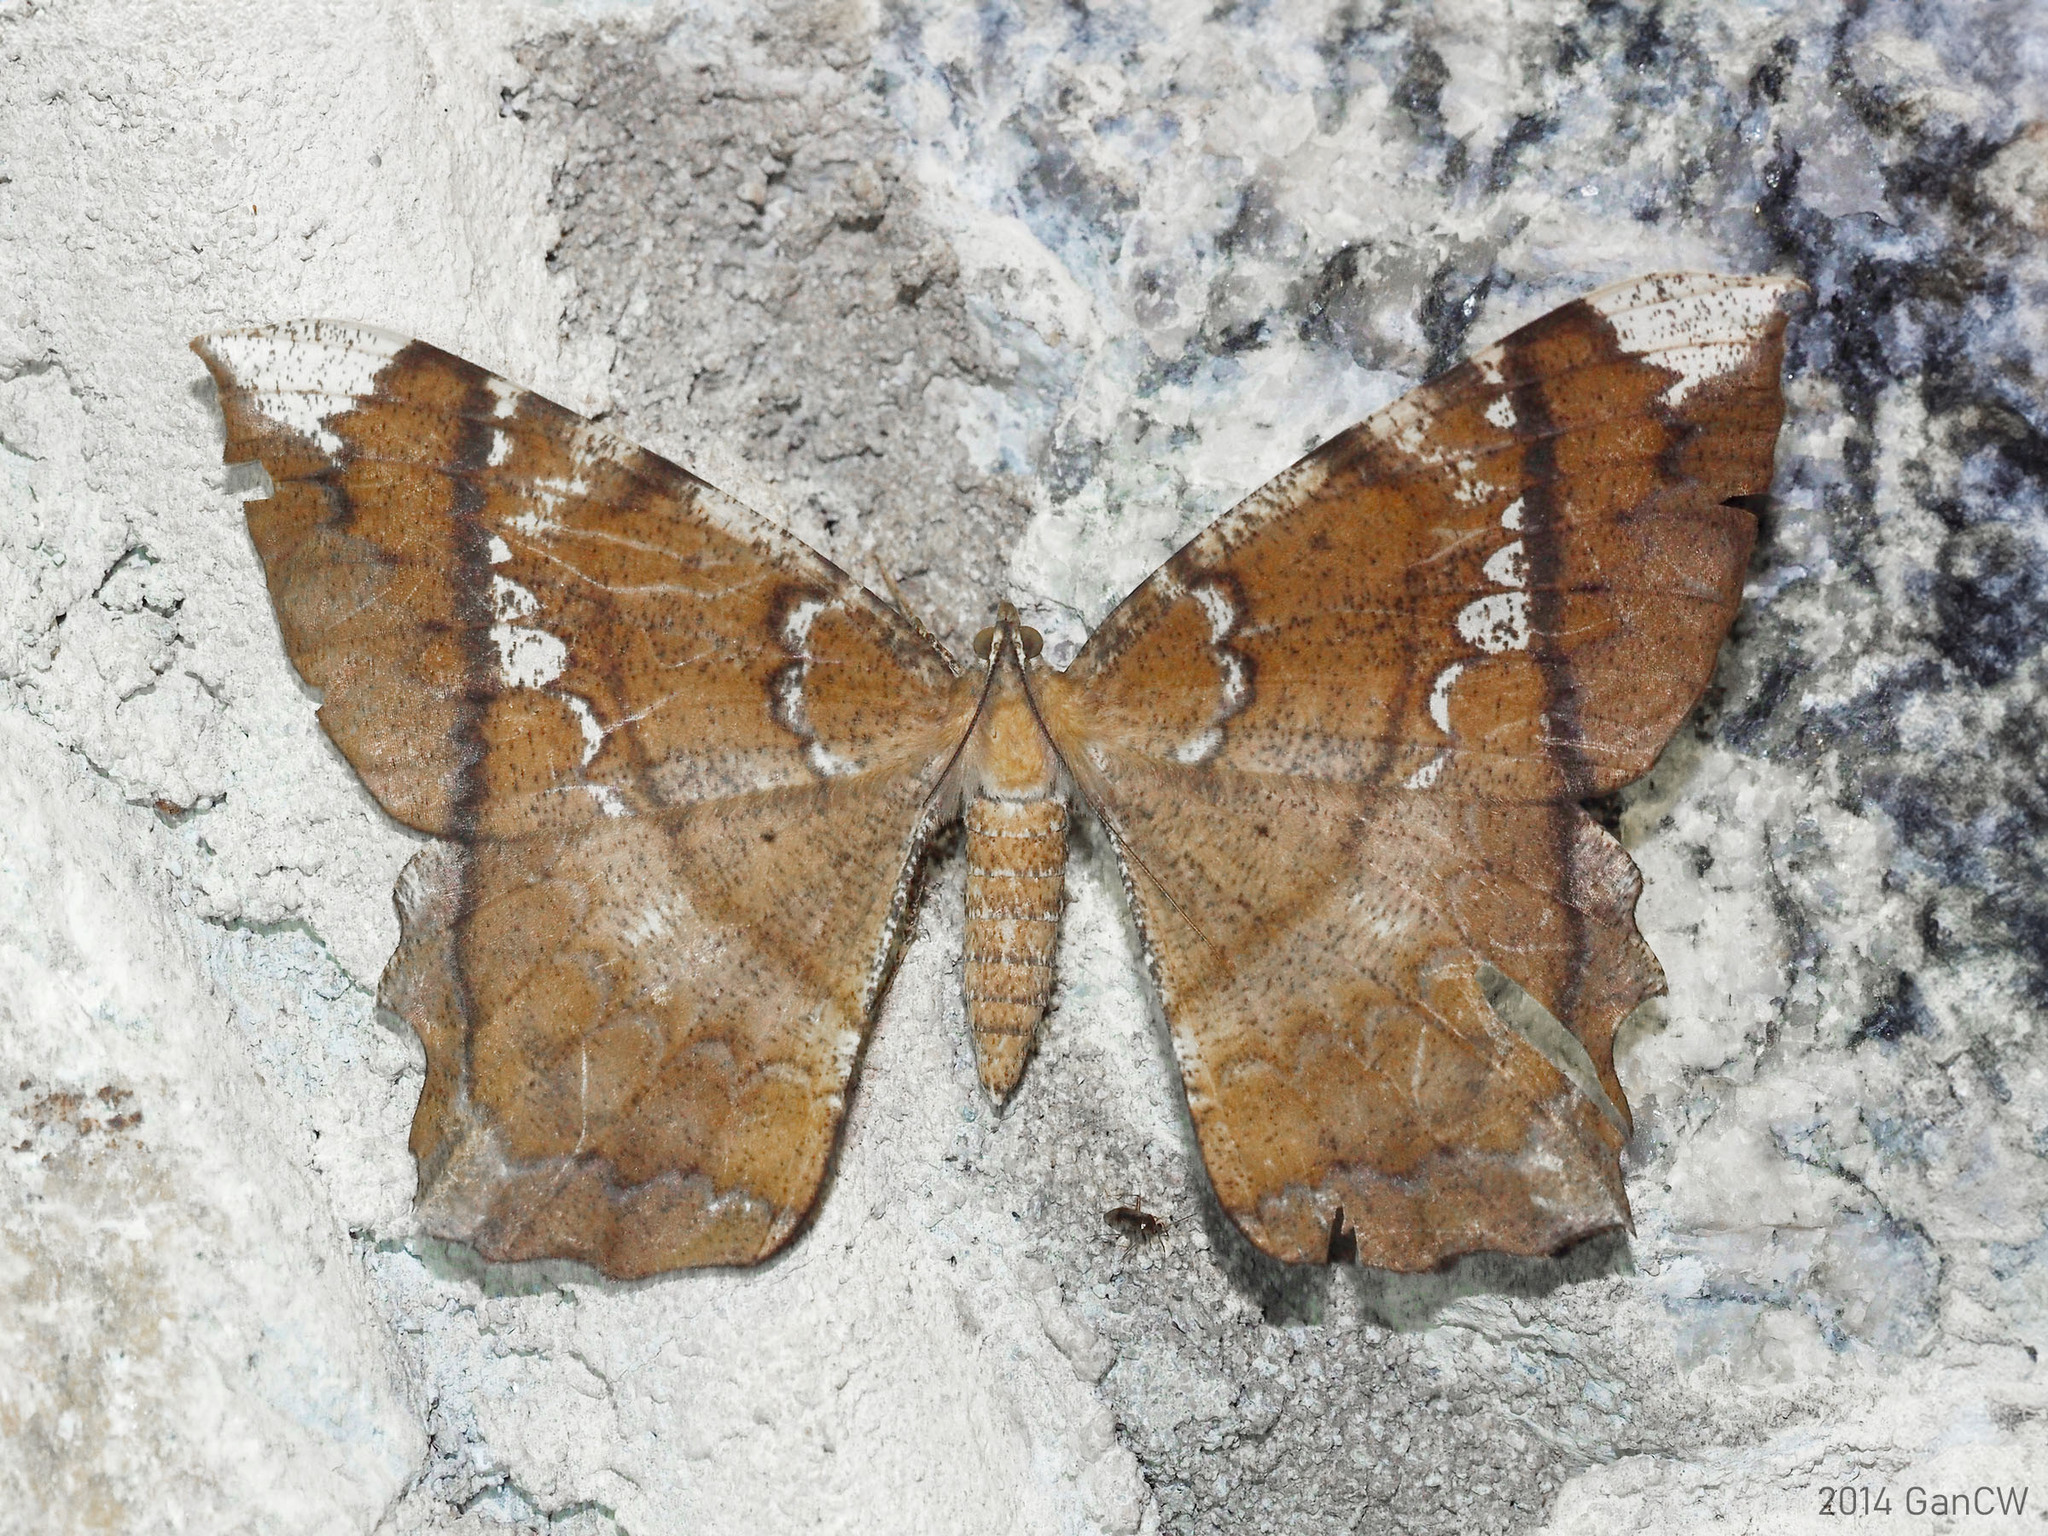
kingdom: Animalia
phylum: Arthropoda
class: Insecta
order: Lepidoptera
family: Geometridae
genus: Amblychia
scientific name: Amblychia angeronaria
